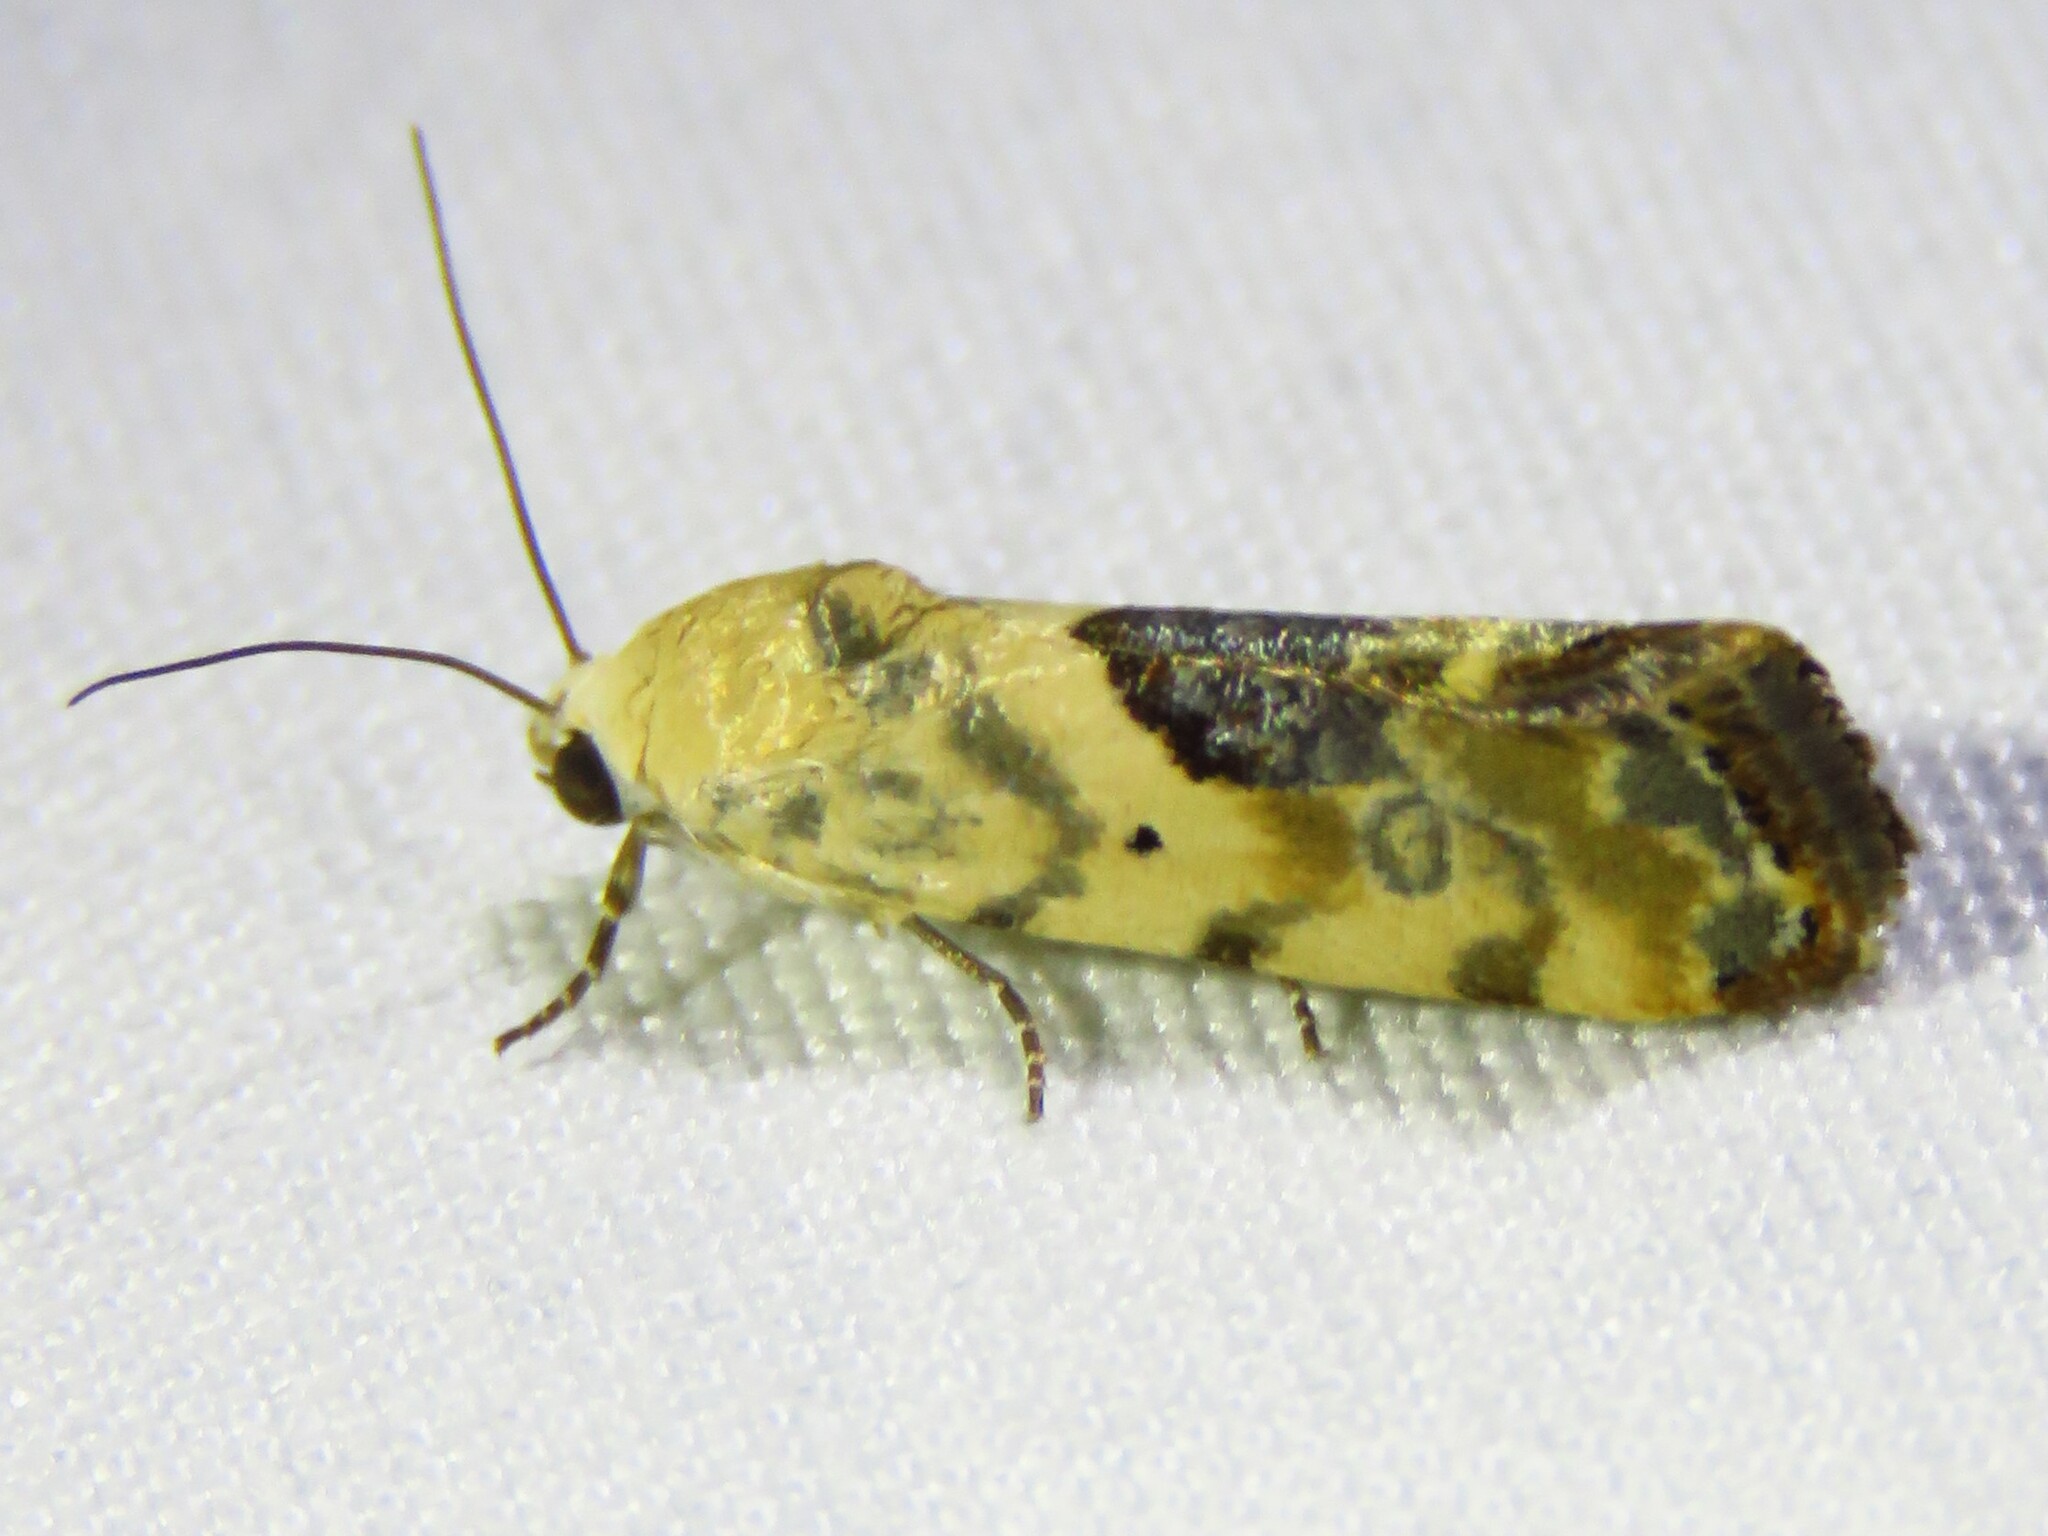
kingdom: Animalia
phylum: Arthropoda
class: Insecta
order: Lepidoptera
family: Noctuidae
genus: Acontia
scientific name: Acontia libedis
